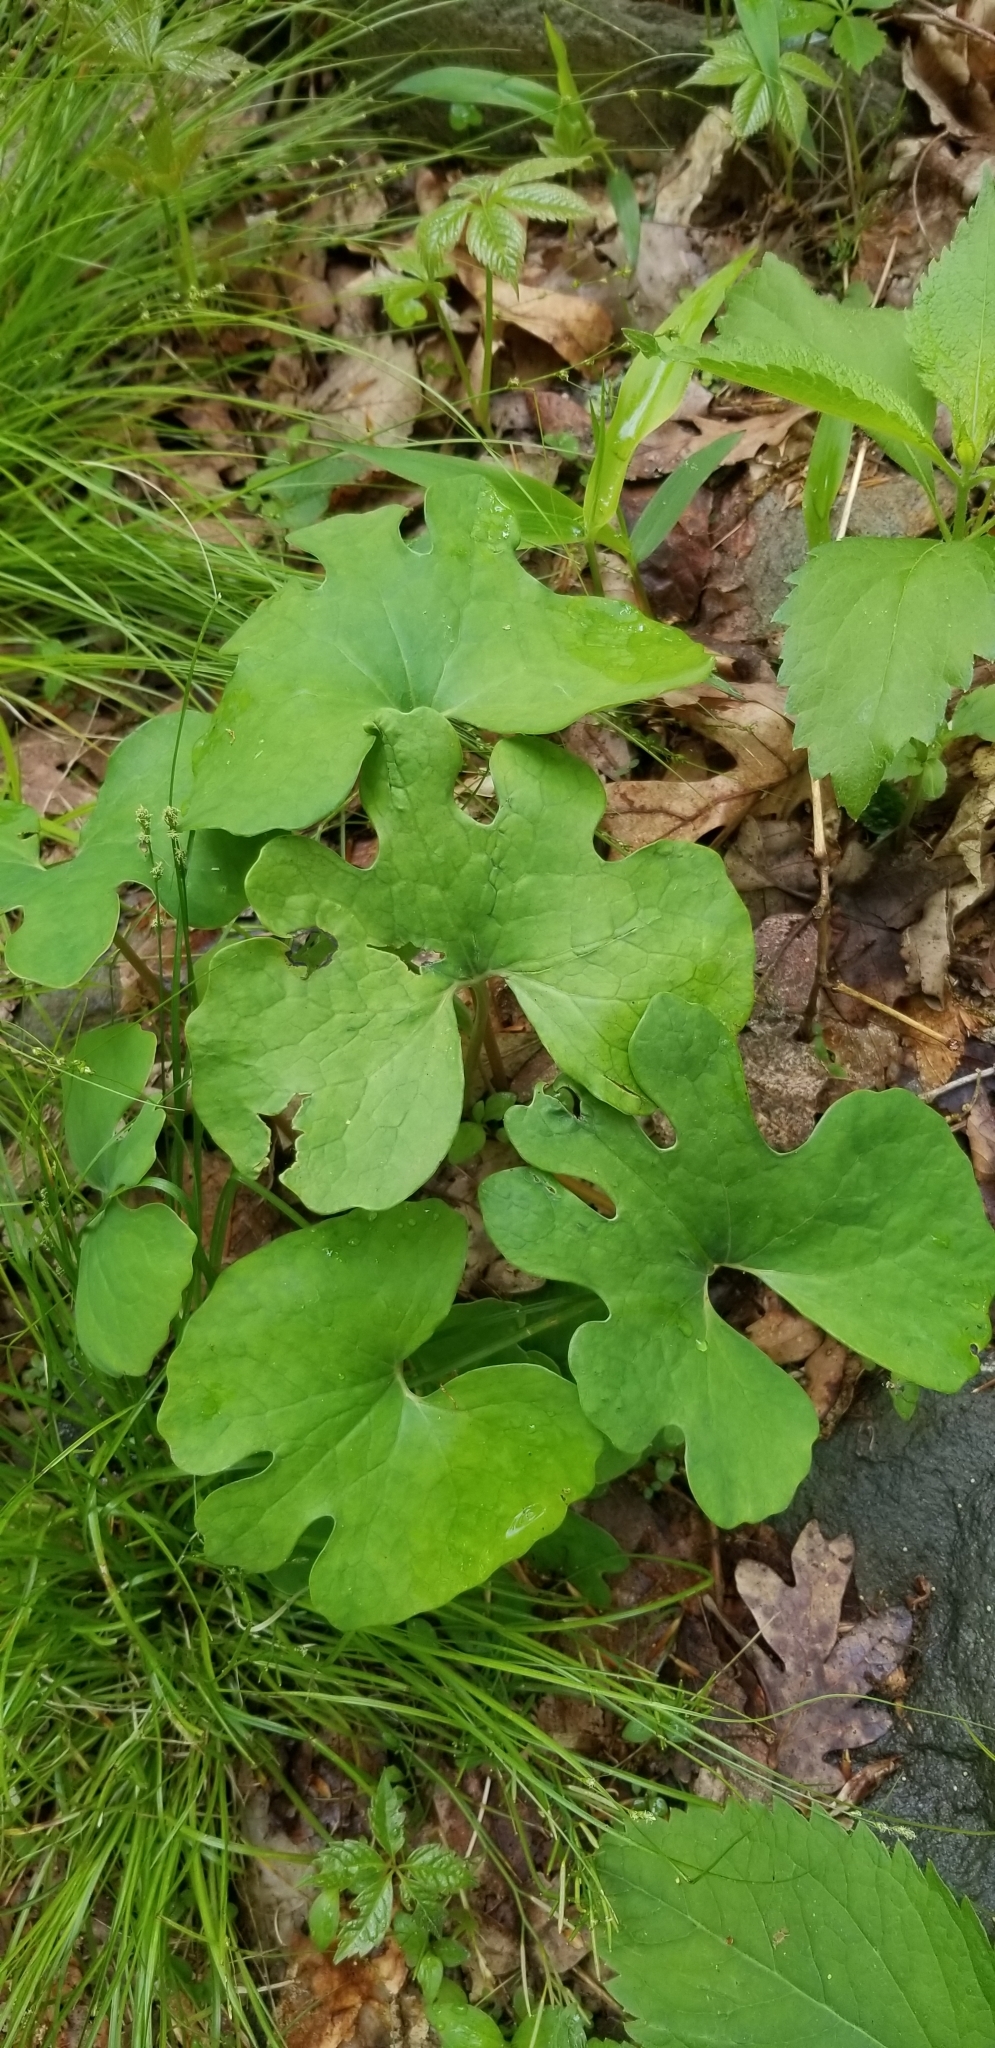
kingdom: Plantae
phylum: Tracheophyta
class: Magnoliopsida
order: Ranunculales
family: Papaveraceae
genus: Sanguinaria
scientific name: Sanguinaria canadensis
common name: Bloodroot
